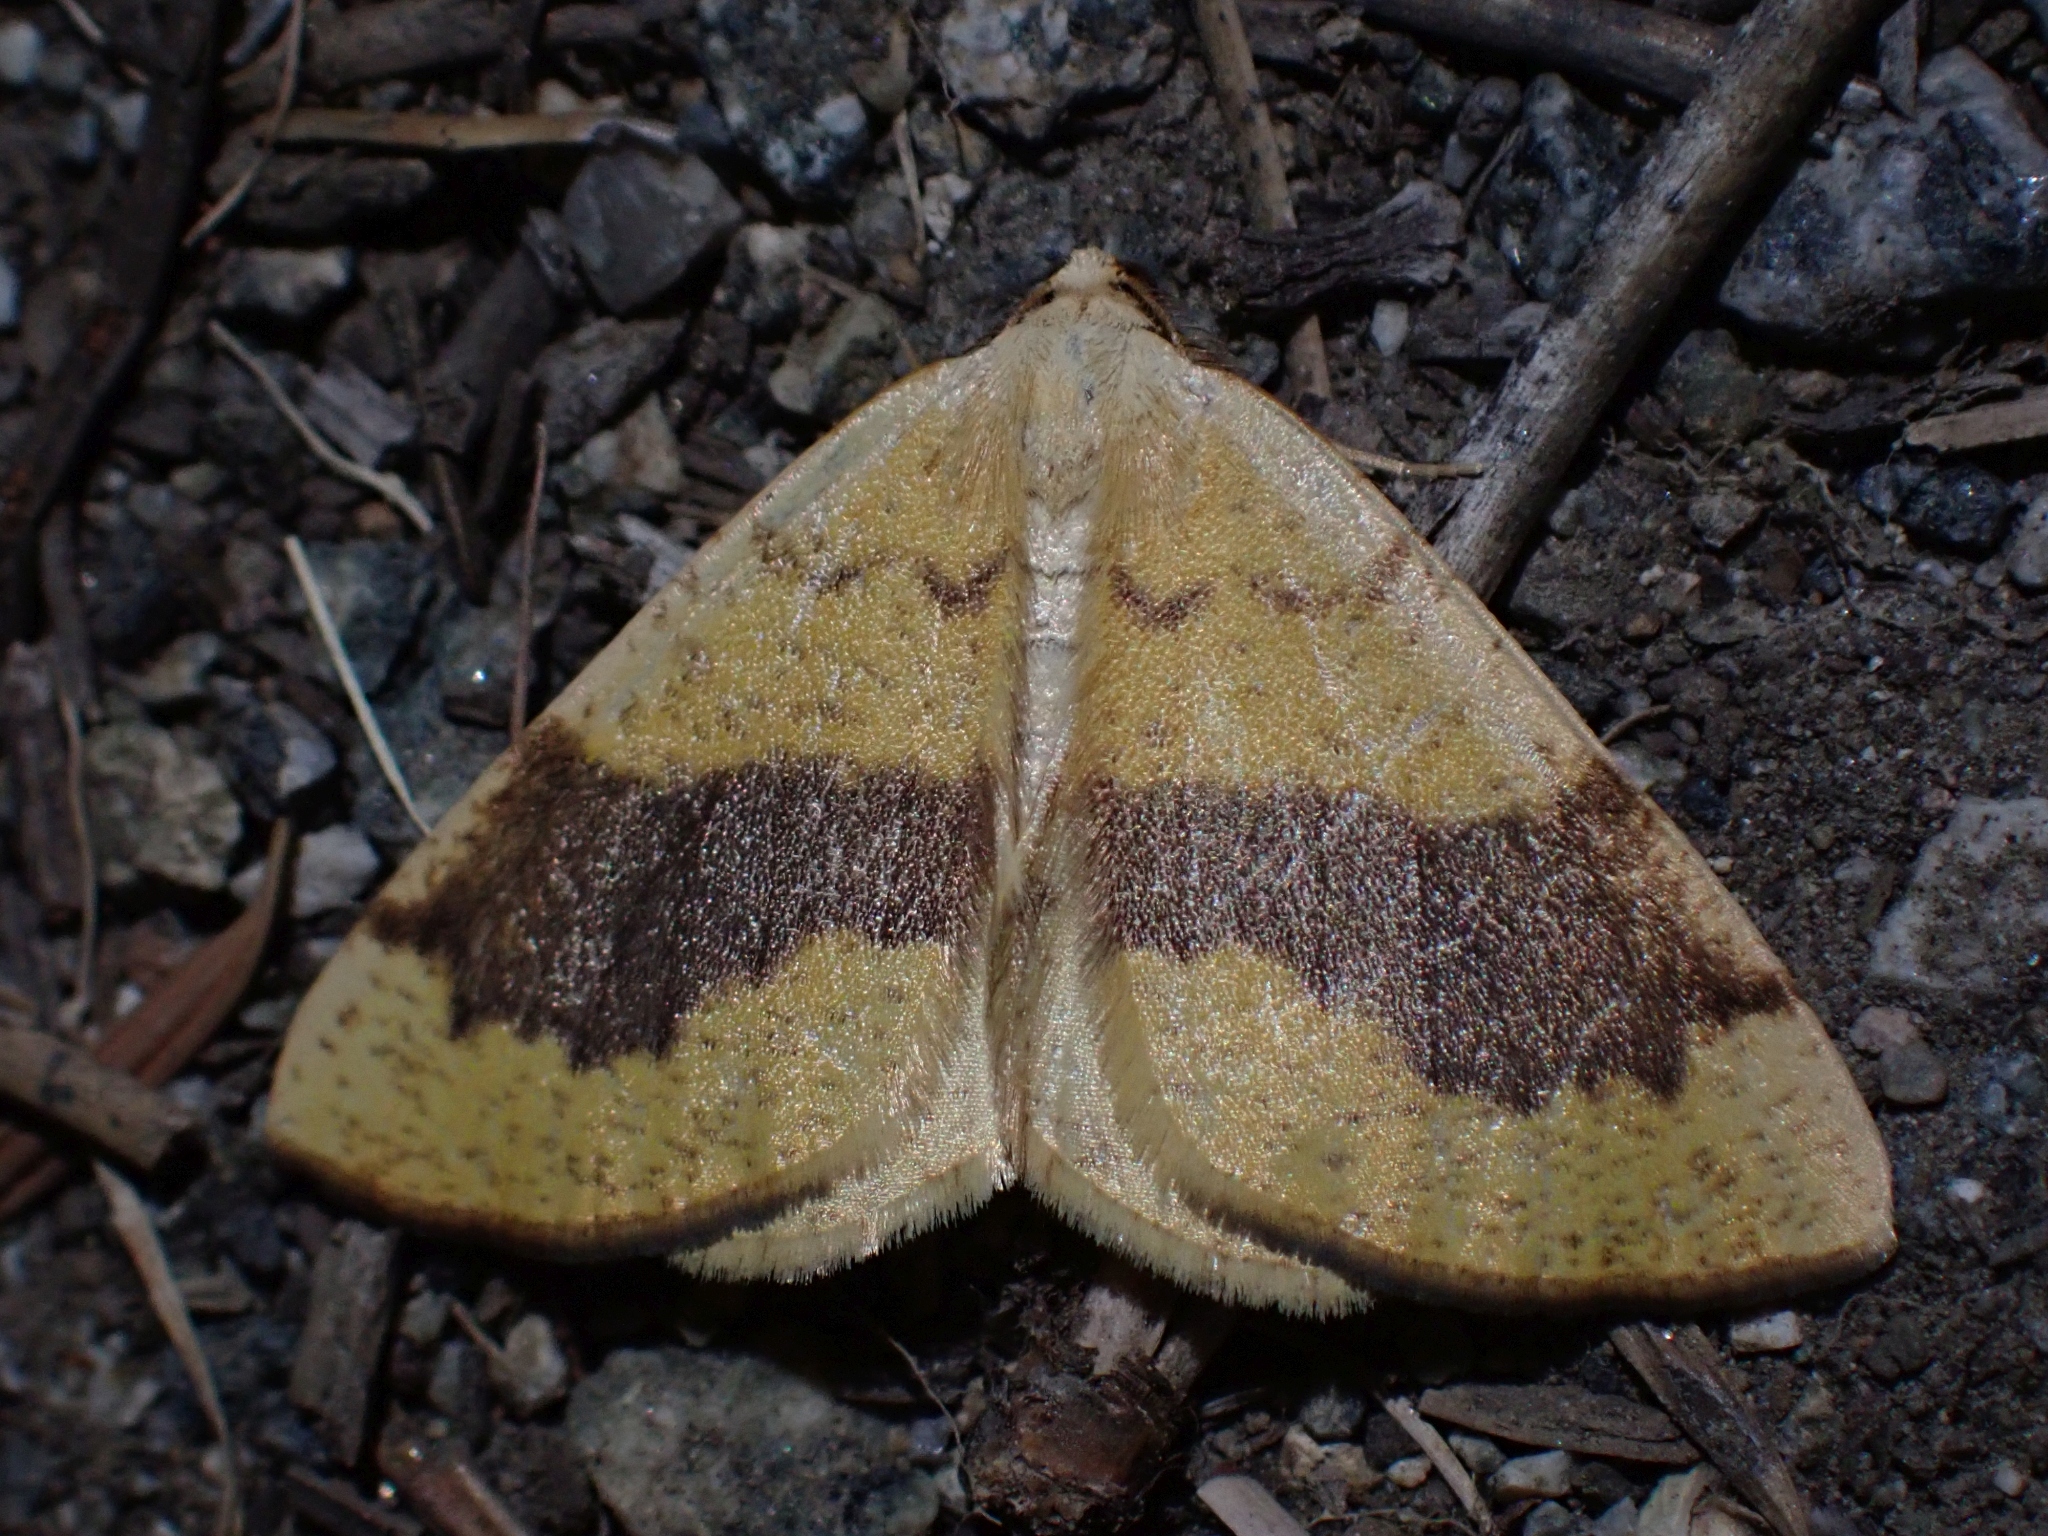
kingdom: Animalia
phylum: Arthropoda
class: Insecta
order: Lepidoptera
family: Geometridae
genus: Hesperumia
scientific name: Hesperumia sulphuraria
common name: Sulphur moth
